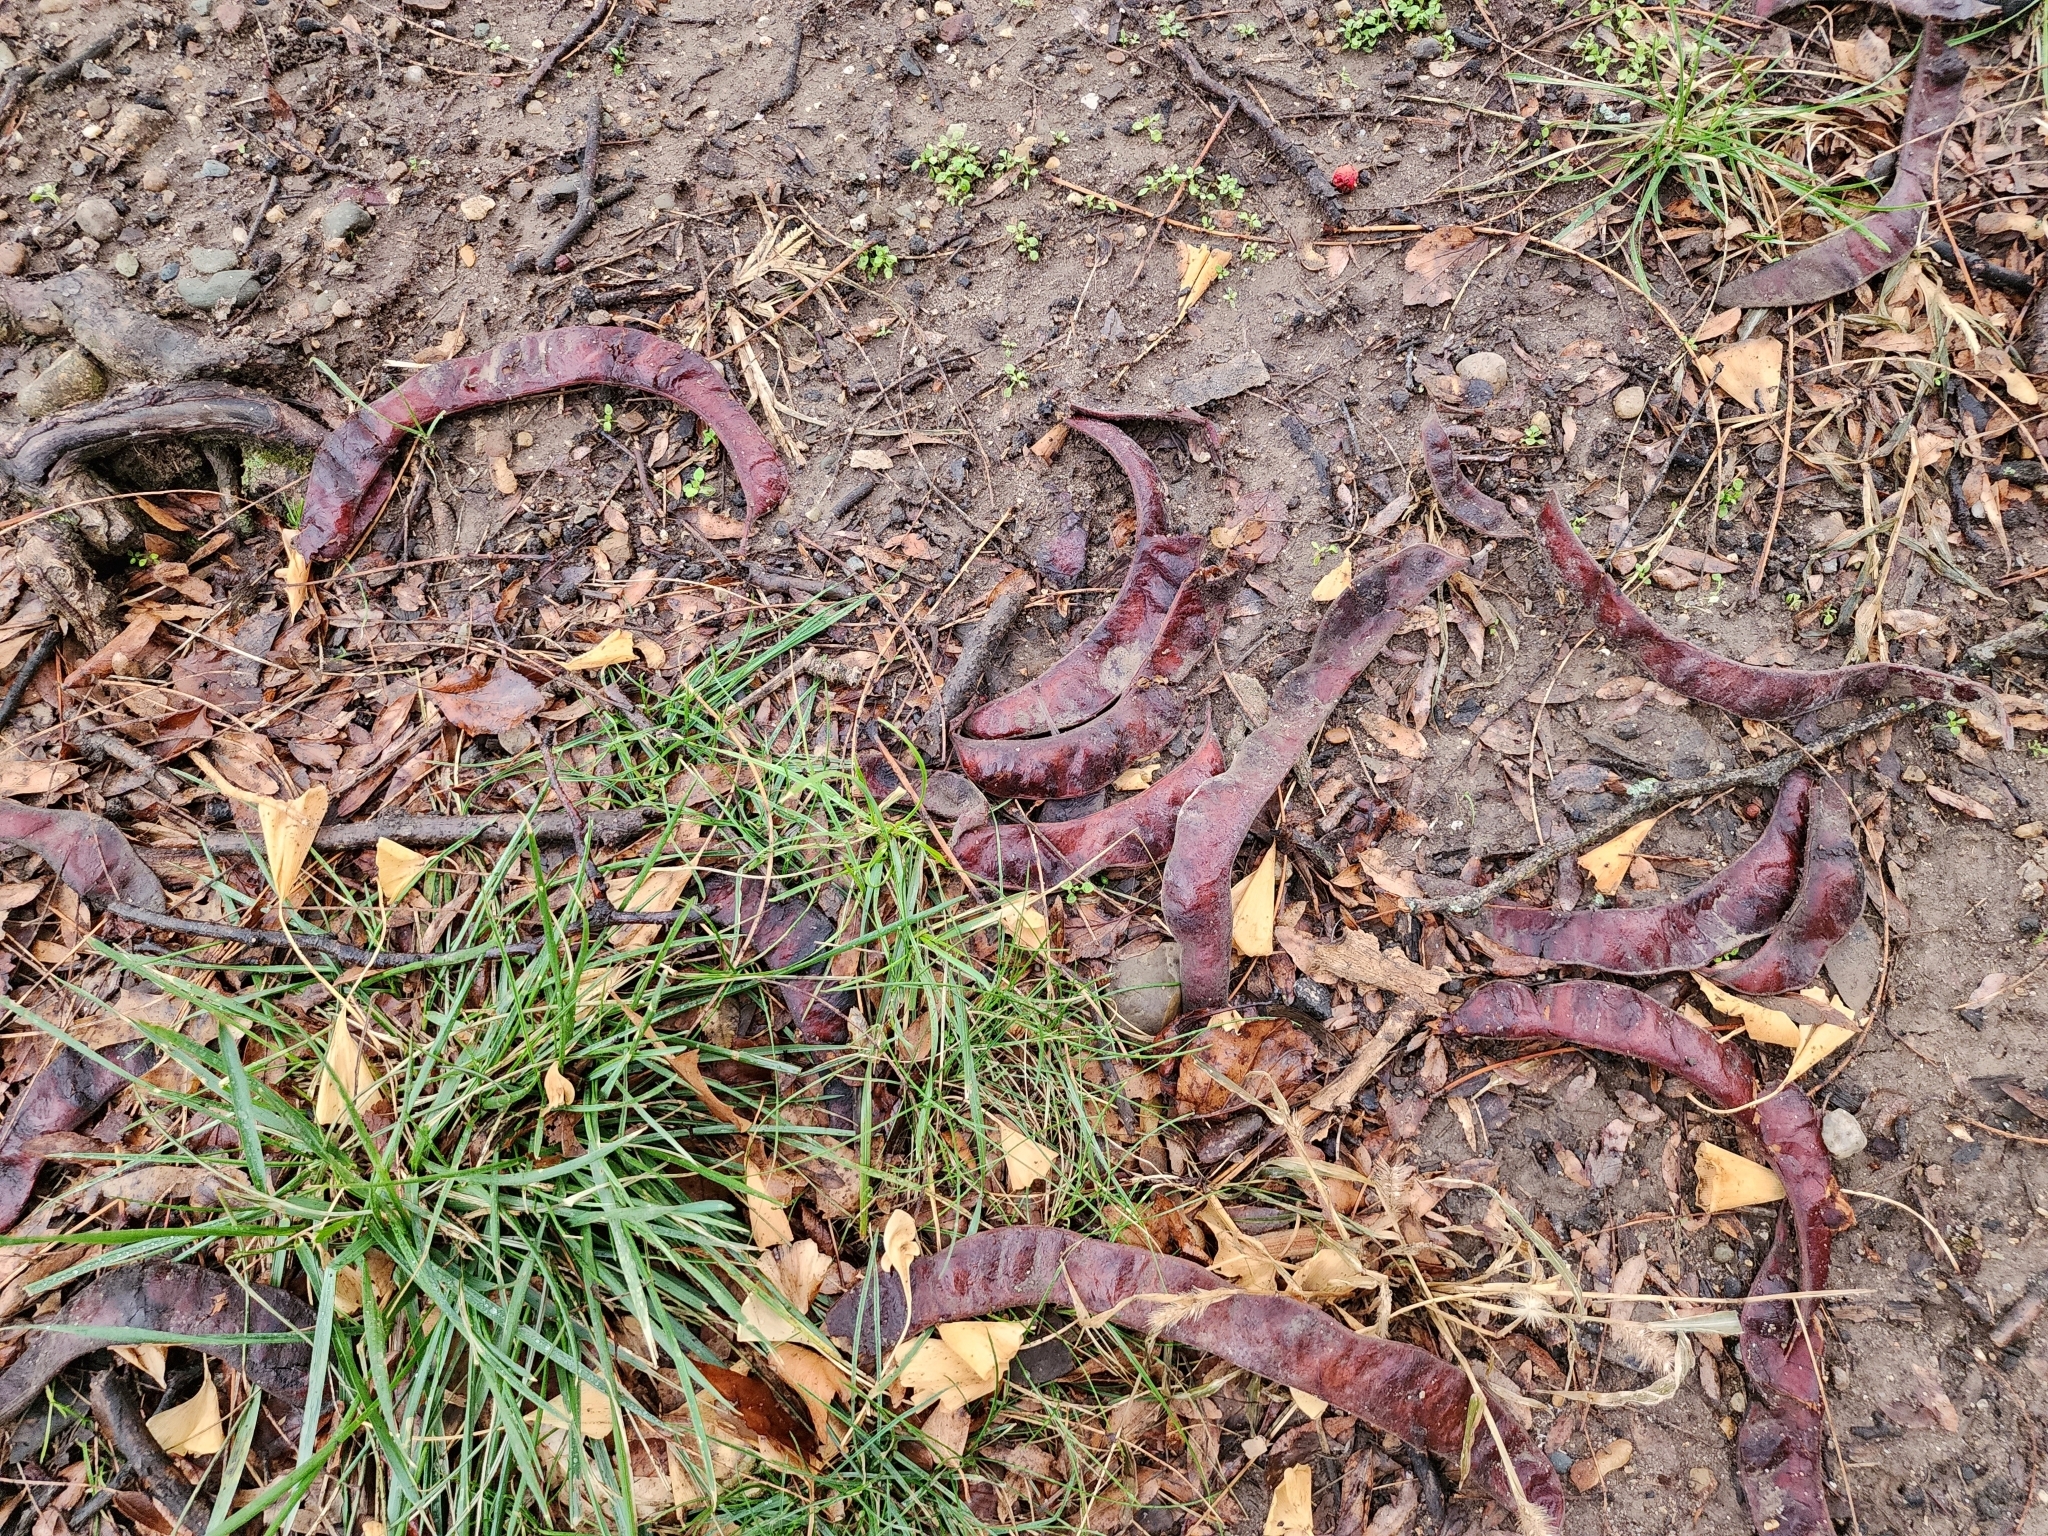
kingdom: Plantae
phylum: Tracheophyta
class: Magnoliopsida
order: Fabales
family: Fabaceae
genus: Gleditsia
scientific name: Gleditsia triacanthos
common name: Common honeylocust
